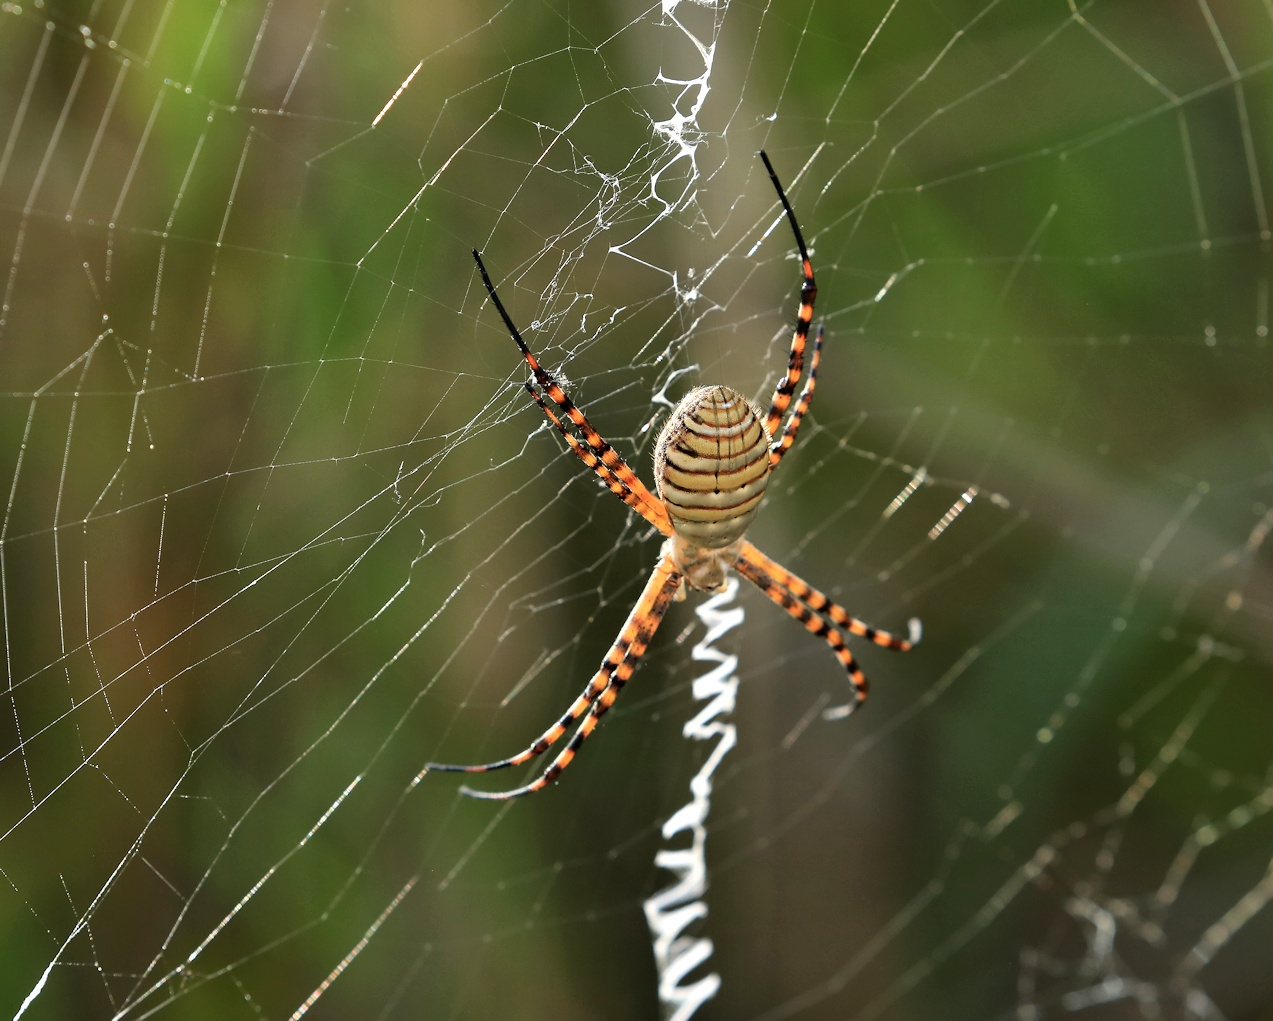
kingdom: Animalia
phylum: Arthropoda
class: Arachnida
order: Araneae
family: Araneidae
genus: Argiope
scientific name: Argiope trifasciata
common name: Banded garden spider
